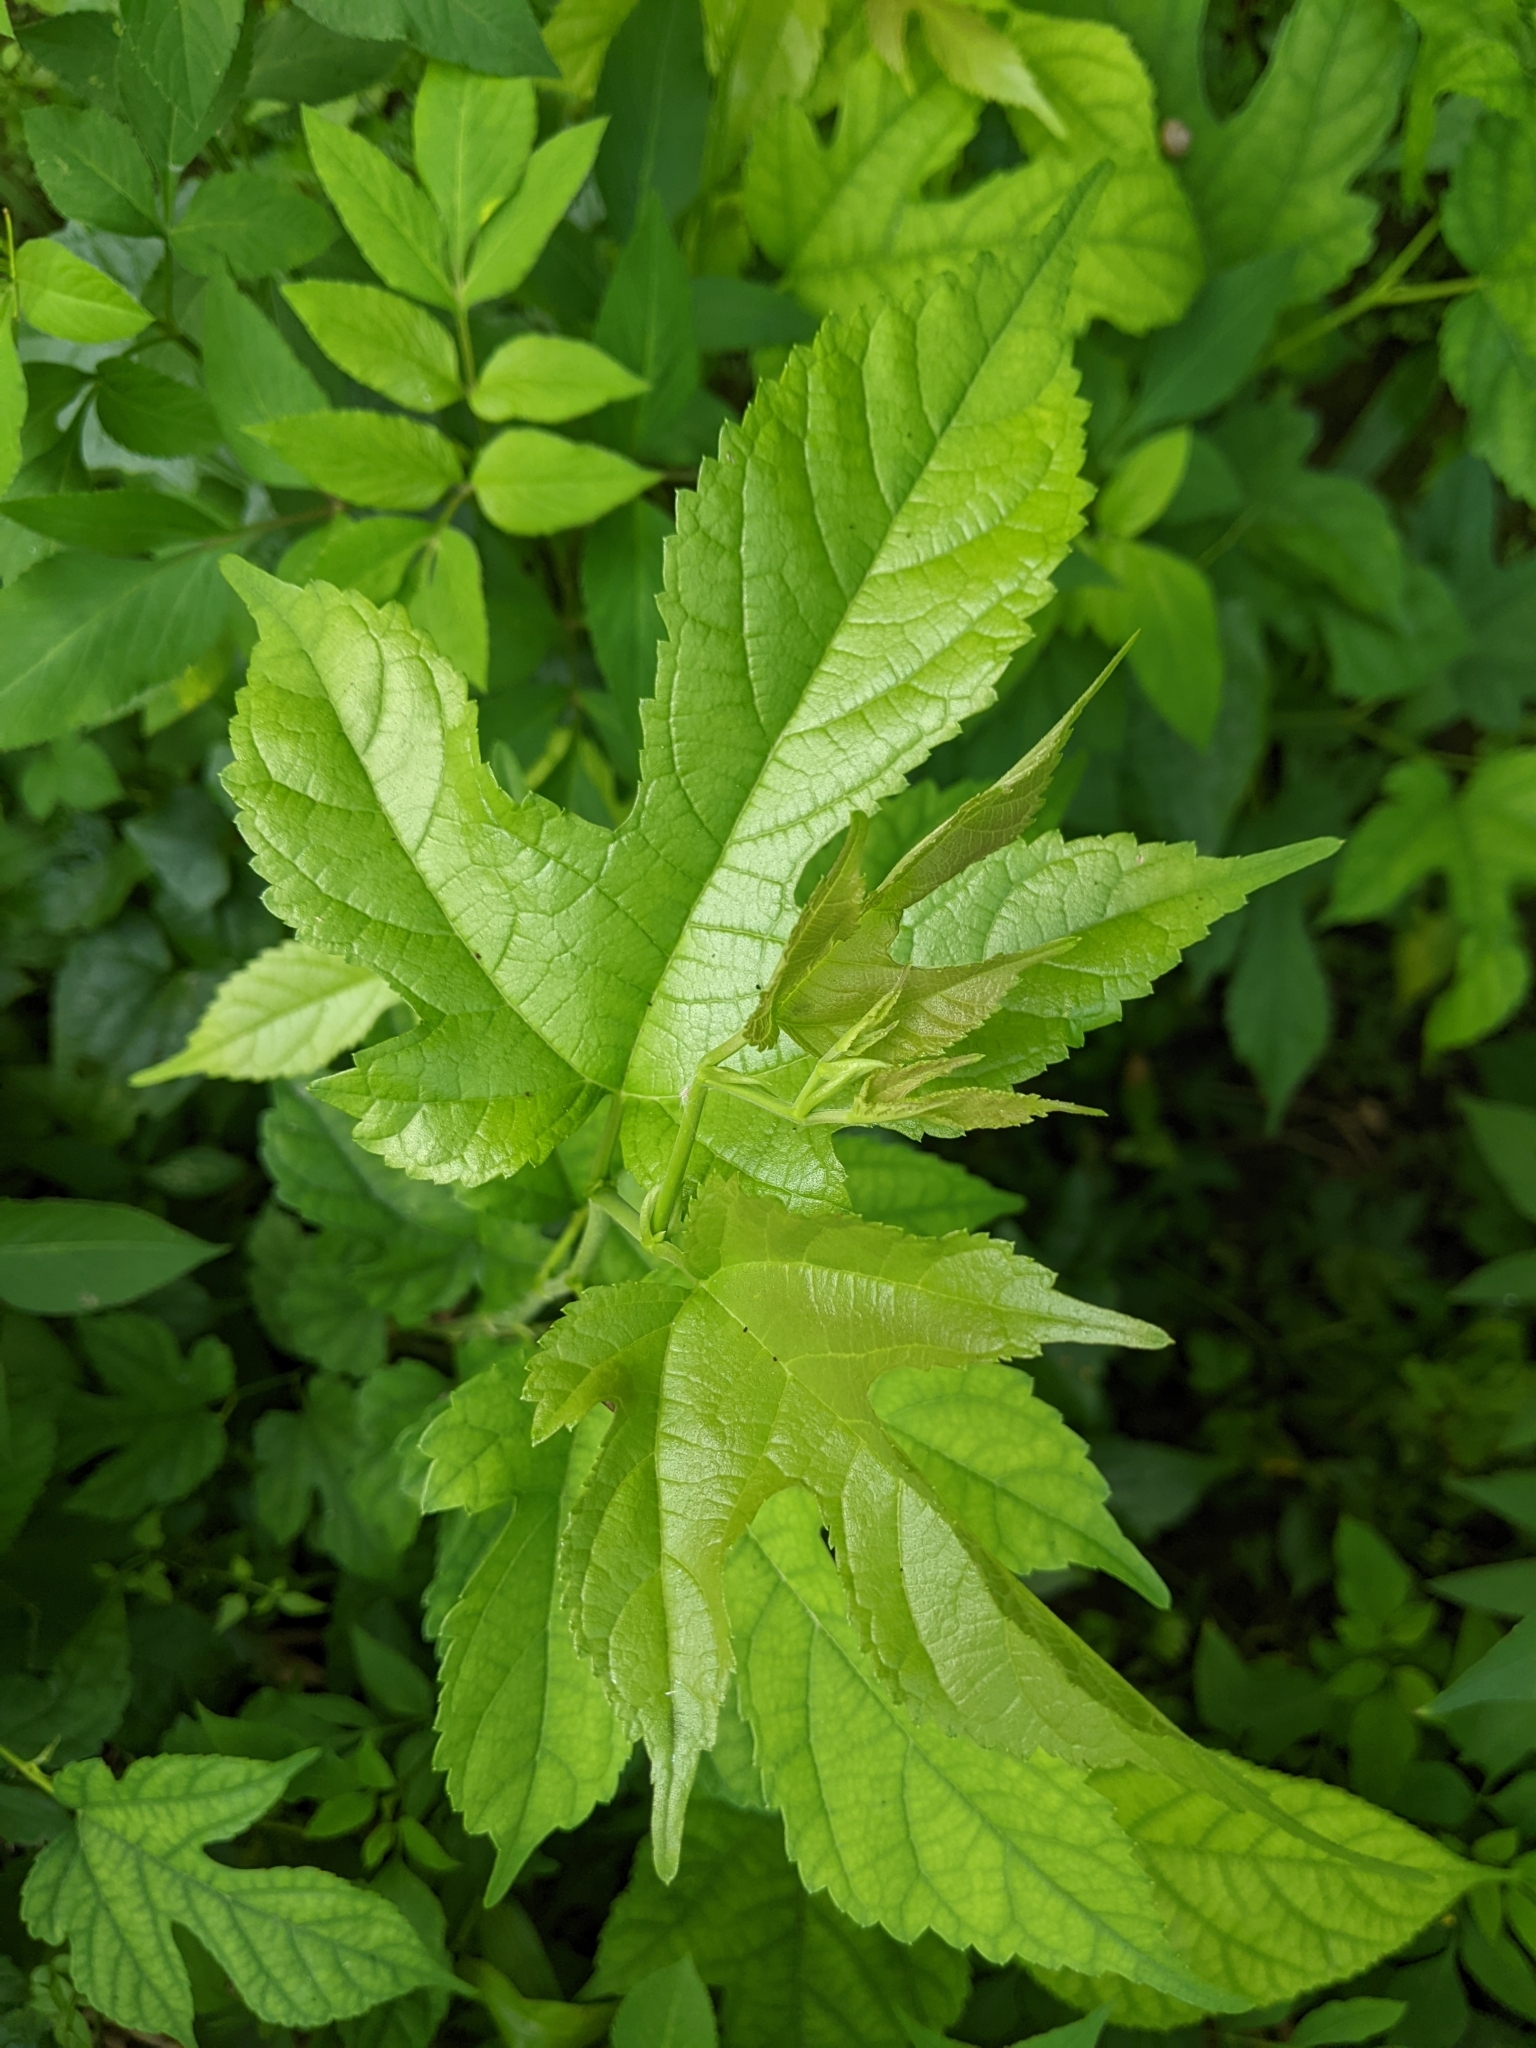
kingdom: Plantae
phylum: Tracheophyta
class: Magnoliopsida
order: Rosales
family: Moraceae
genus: Morus
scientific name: Morus indica
